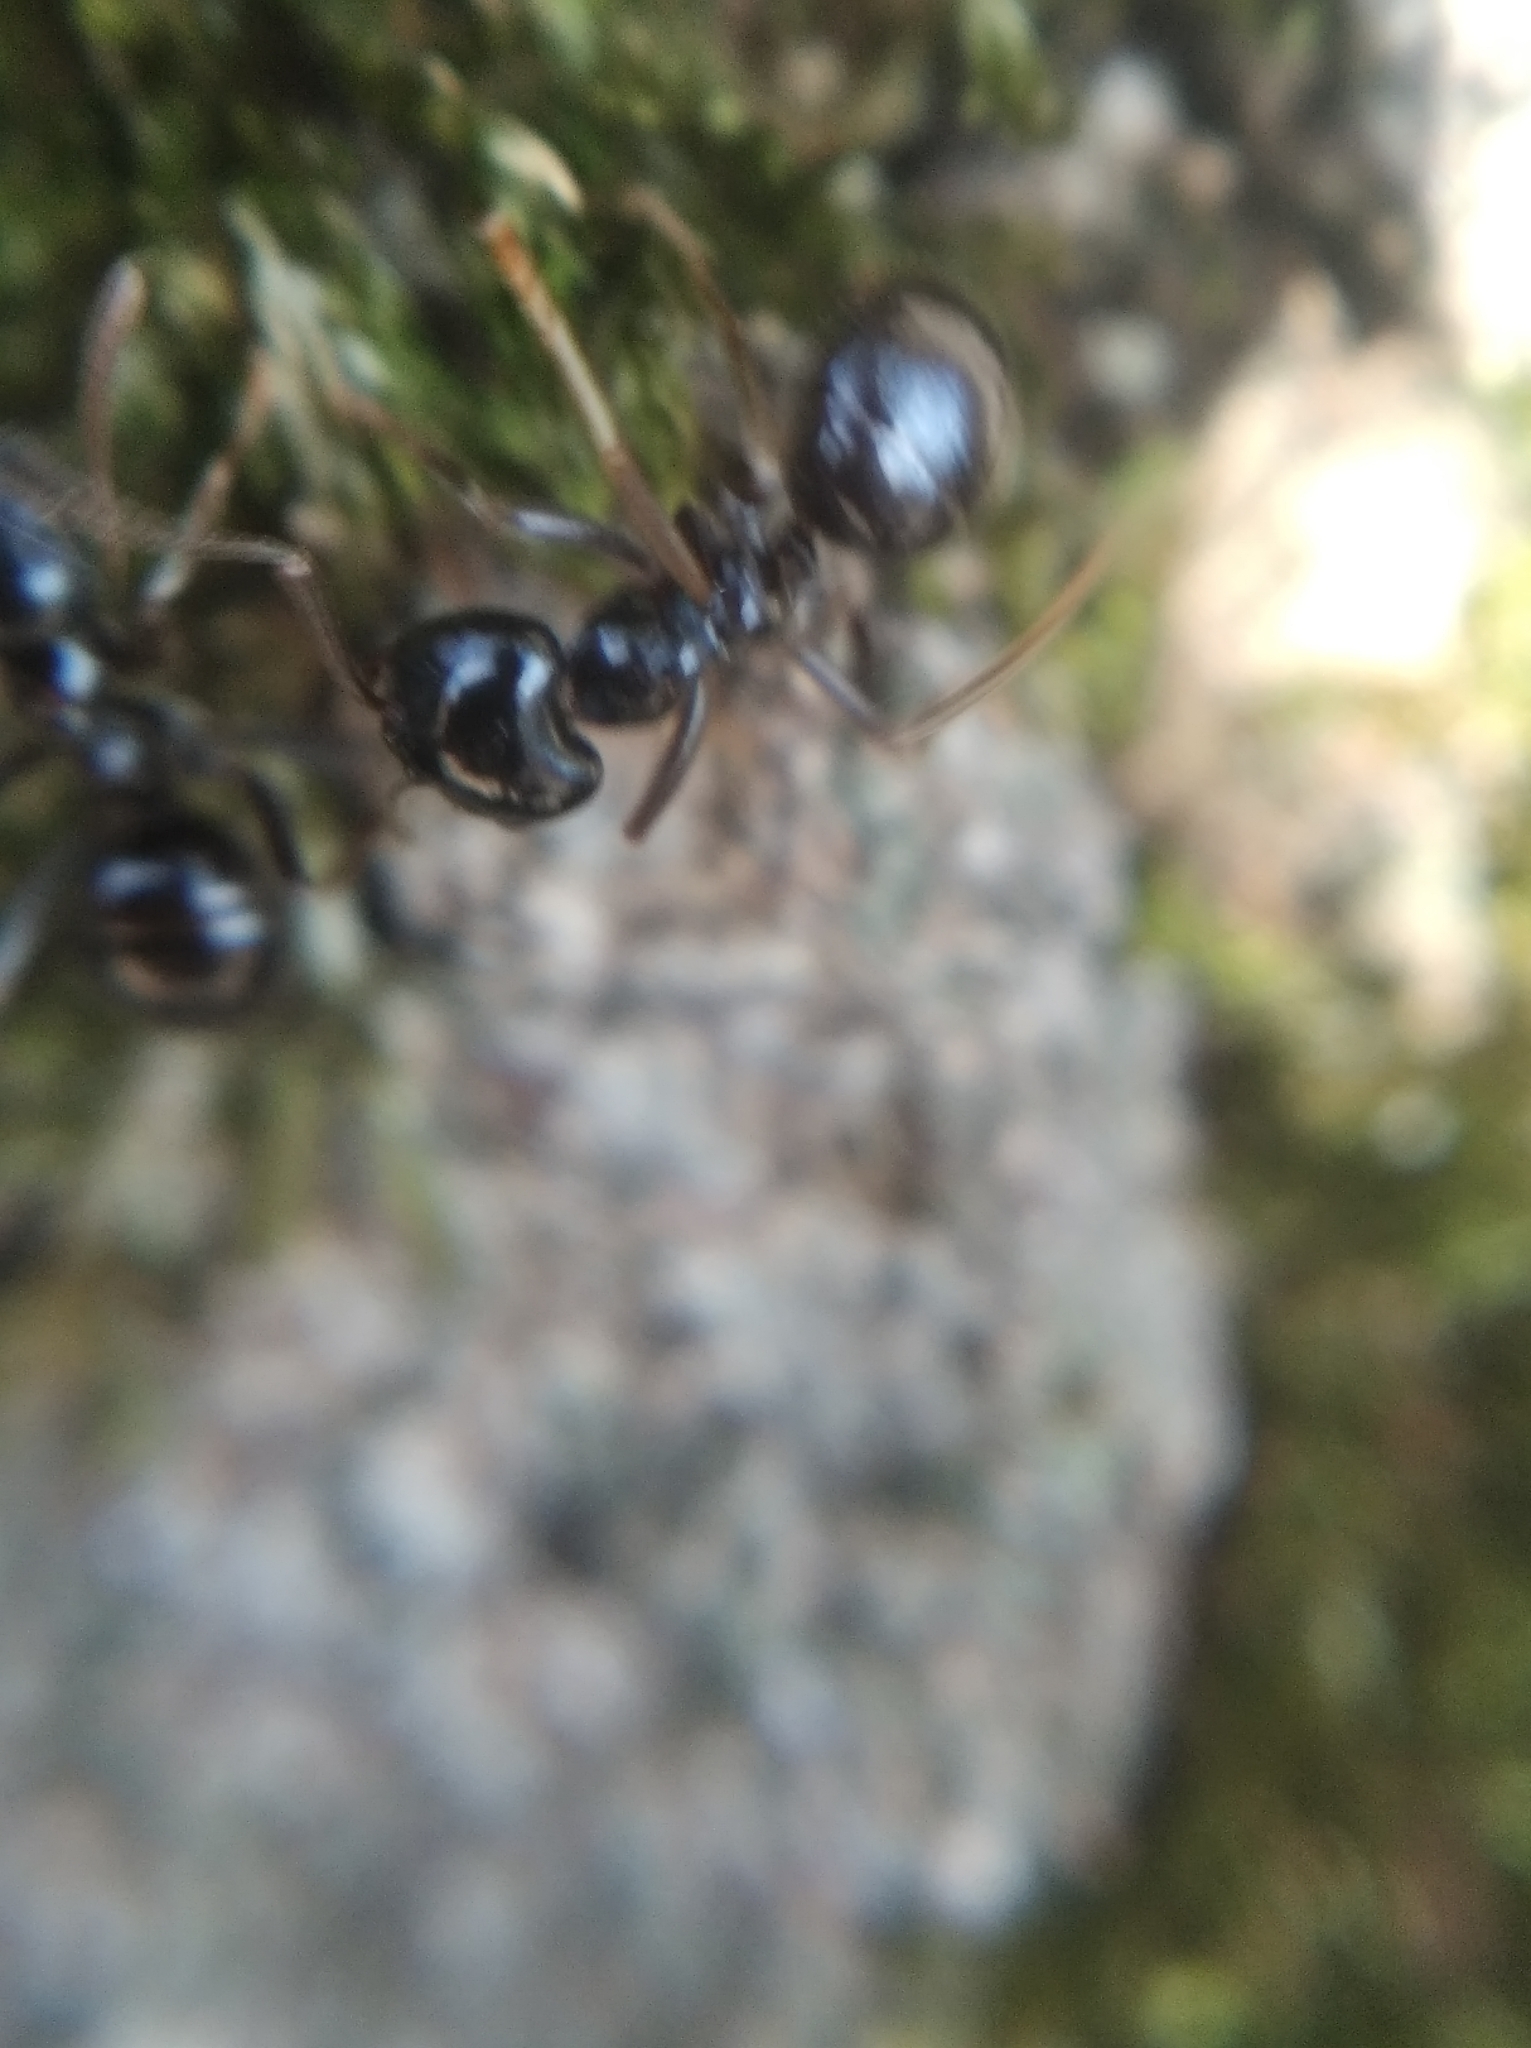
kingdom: Animalia
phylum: Arthropoda
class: Insecta
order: Hymenoptera
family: Formicidae
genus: Lasius
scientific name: Lasius fuliginosus
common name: Jet ant
